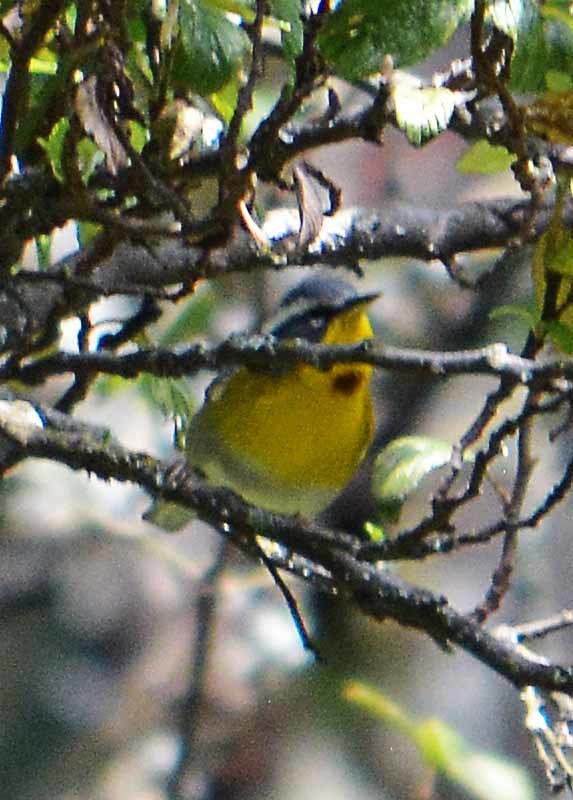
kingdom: Animalia
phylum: Chordata
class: Aves
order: Passeriformes
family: Parulidae
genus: Oreothlypis
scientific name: Oreothlypis superciliosa
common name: Crescent-chested warbler
